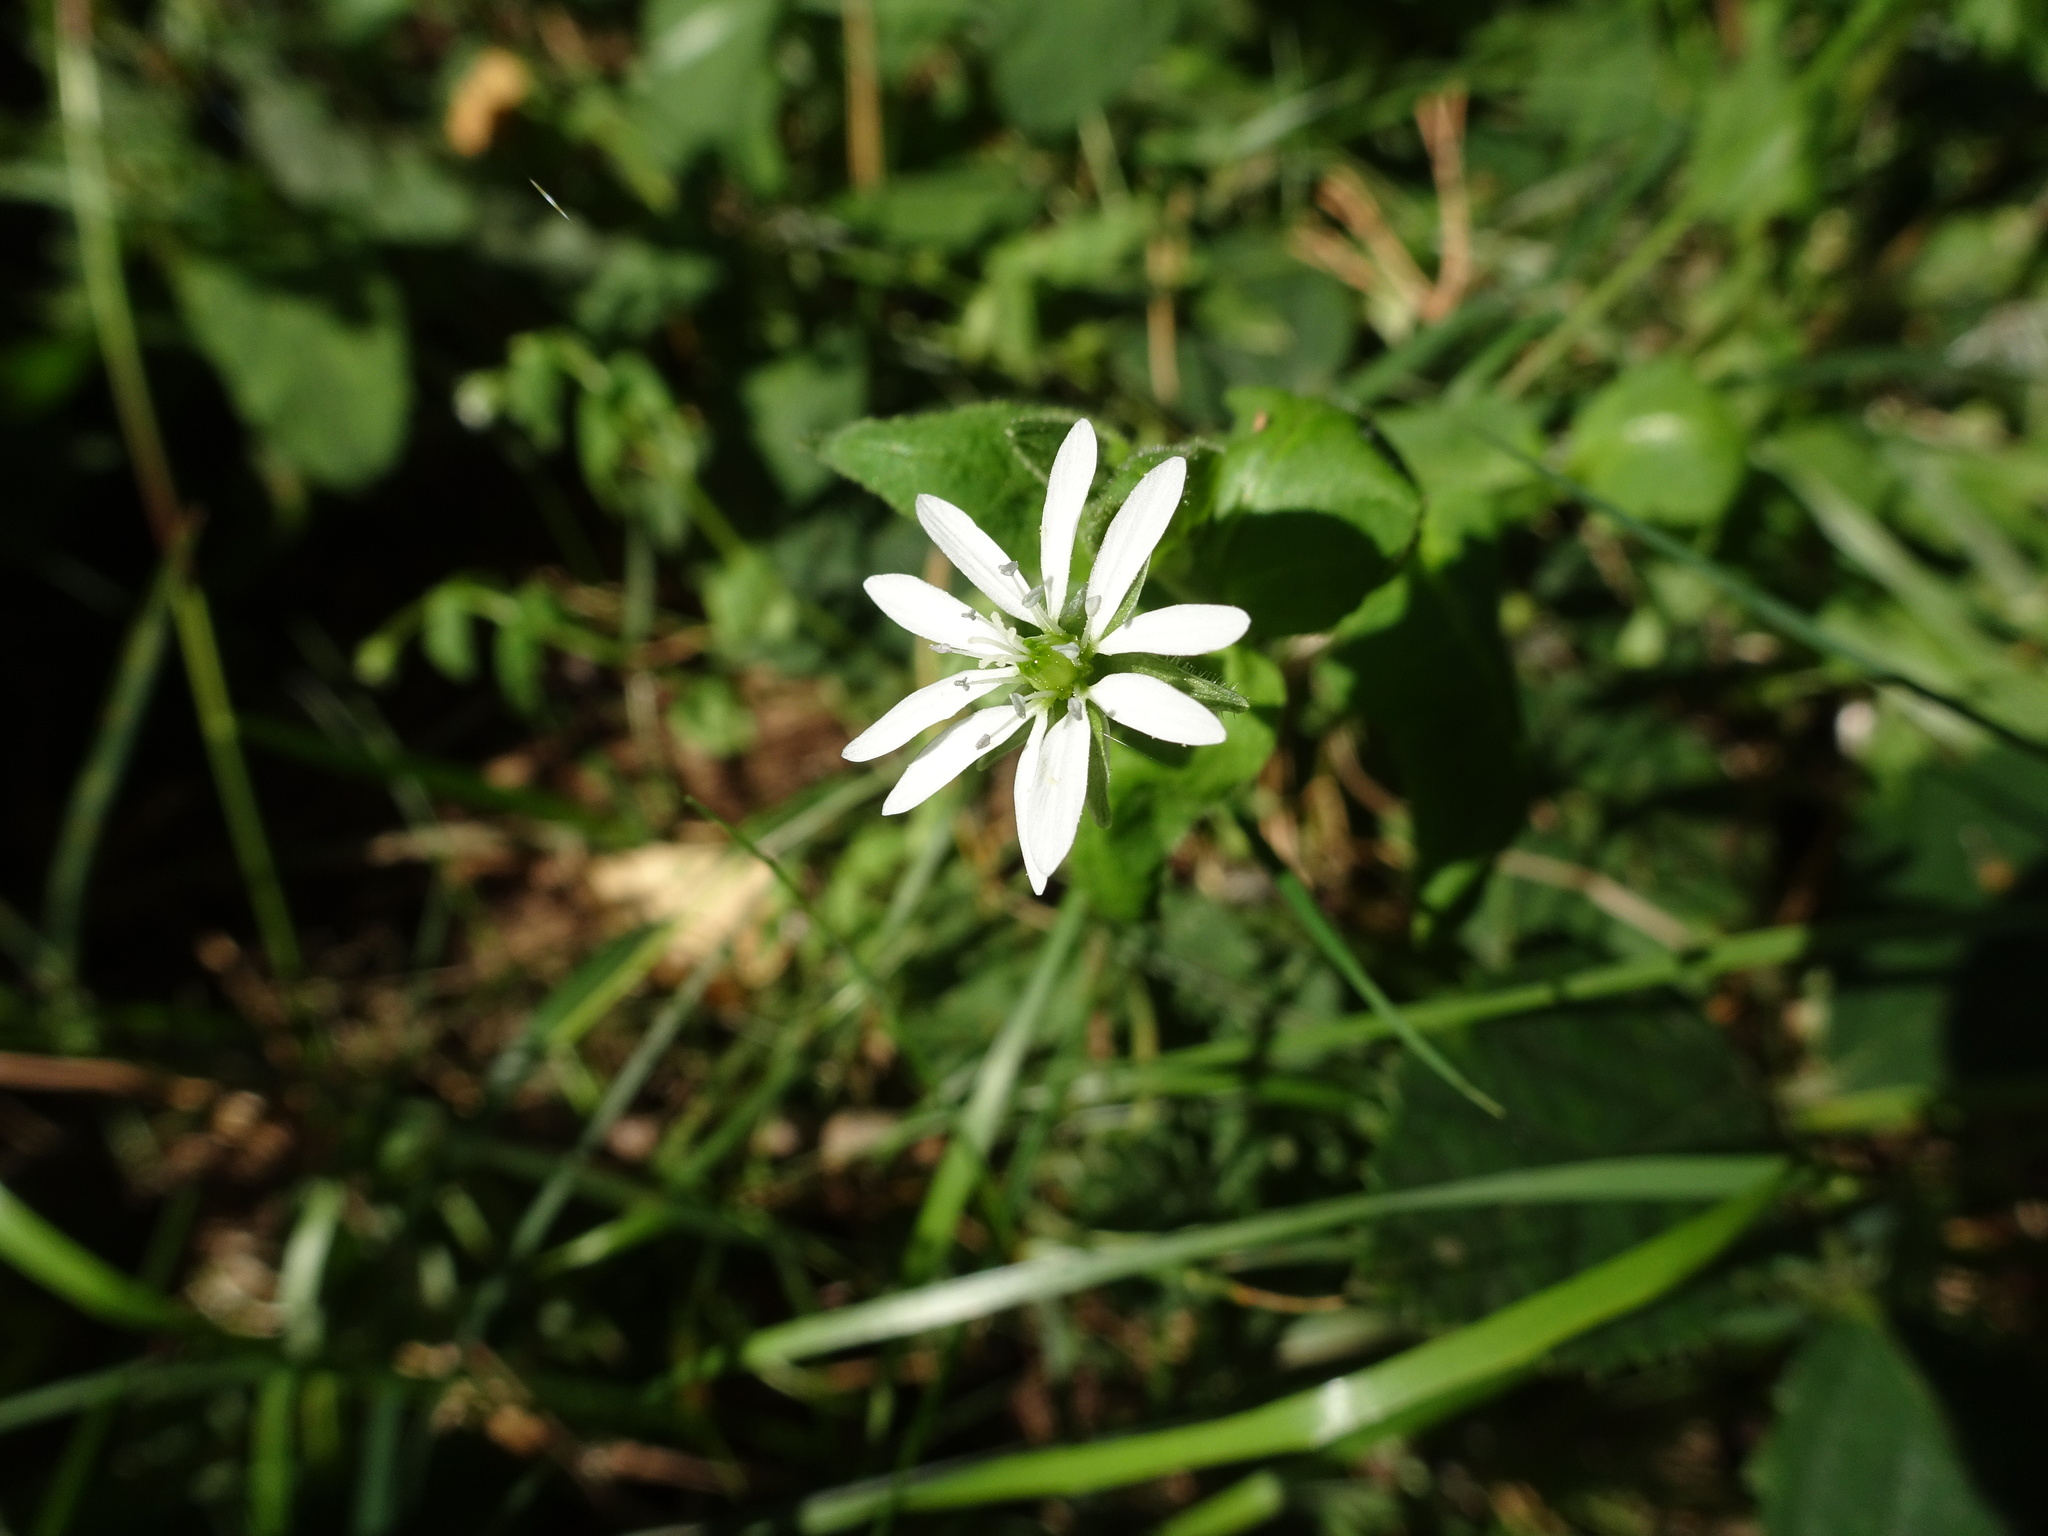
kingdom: Plantae
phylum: Tracheophyta
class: Magnoliopsida
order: Caryophyllales
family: Caryophyllaceae
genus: Stellaria
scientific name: Stellaria aquatica
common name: Water chickweed
